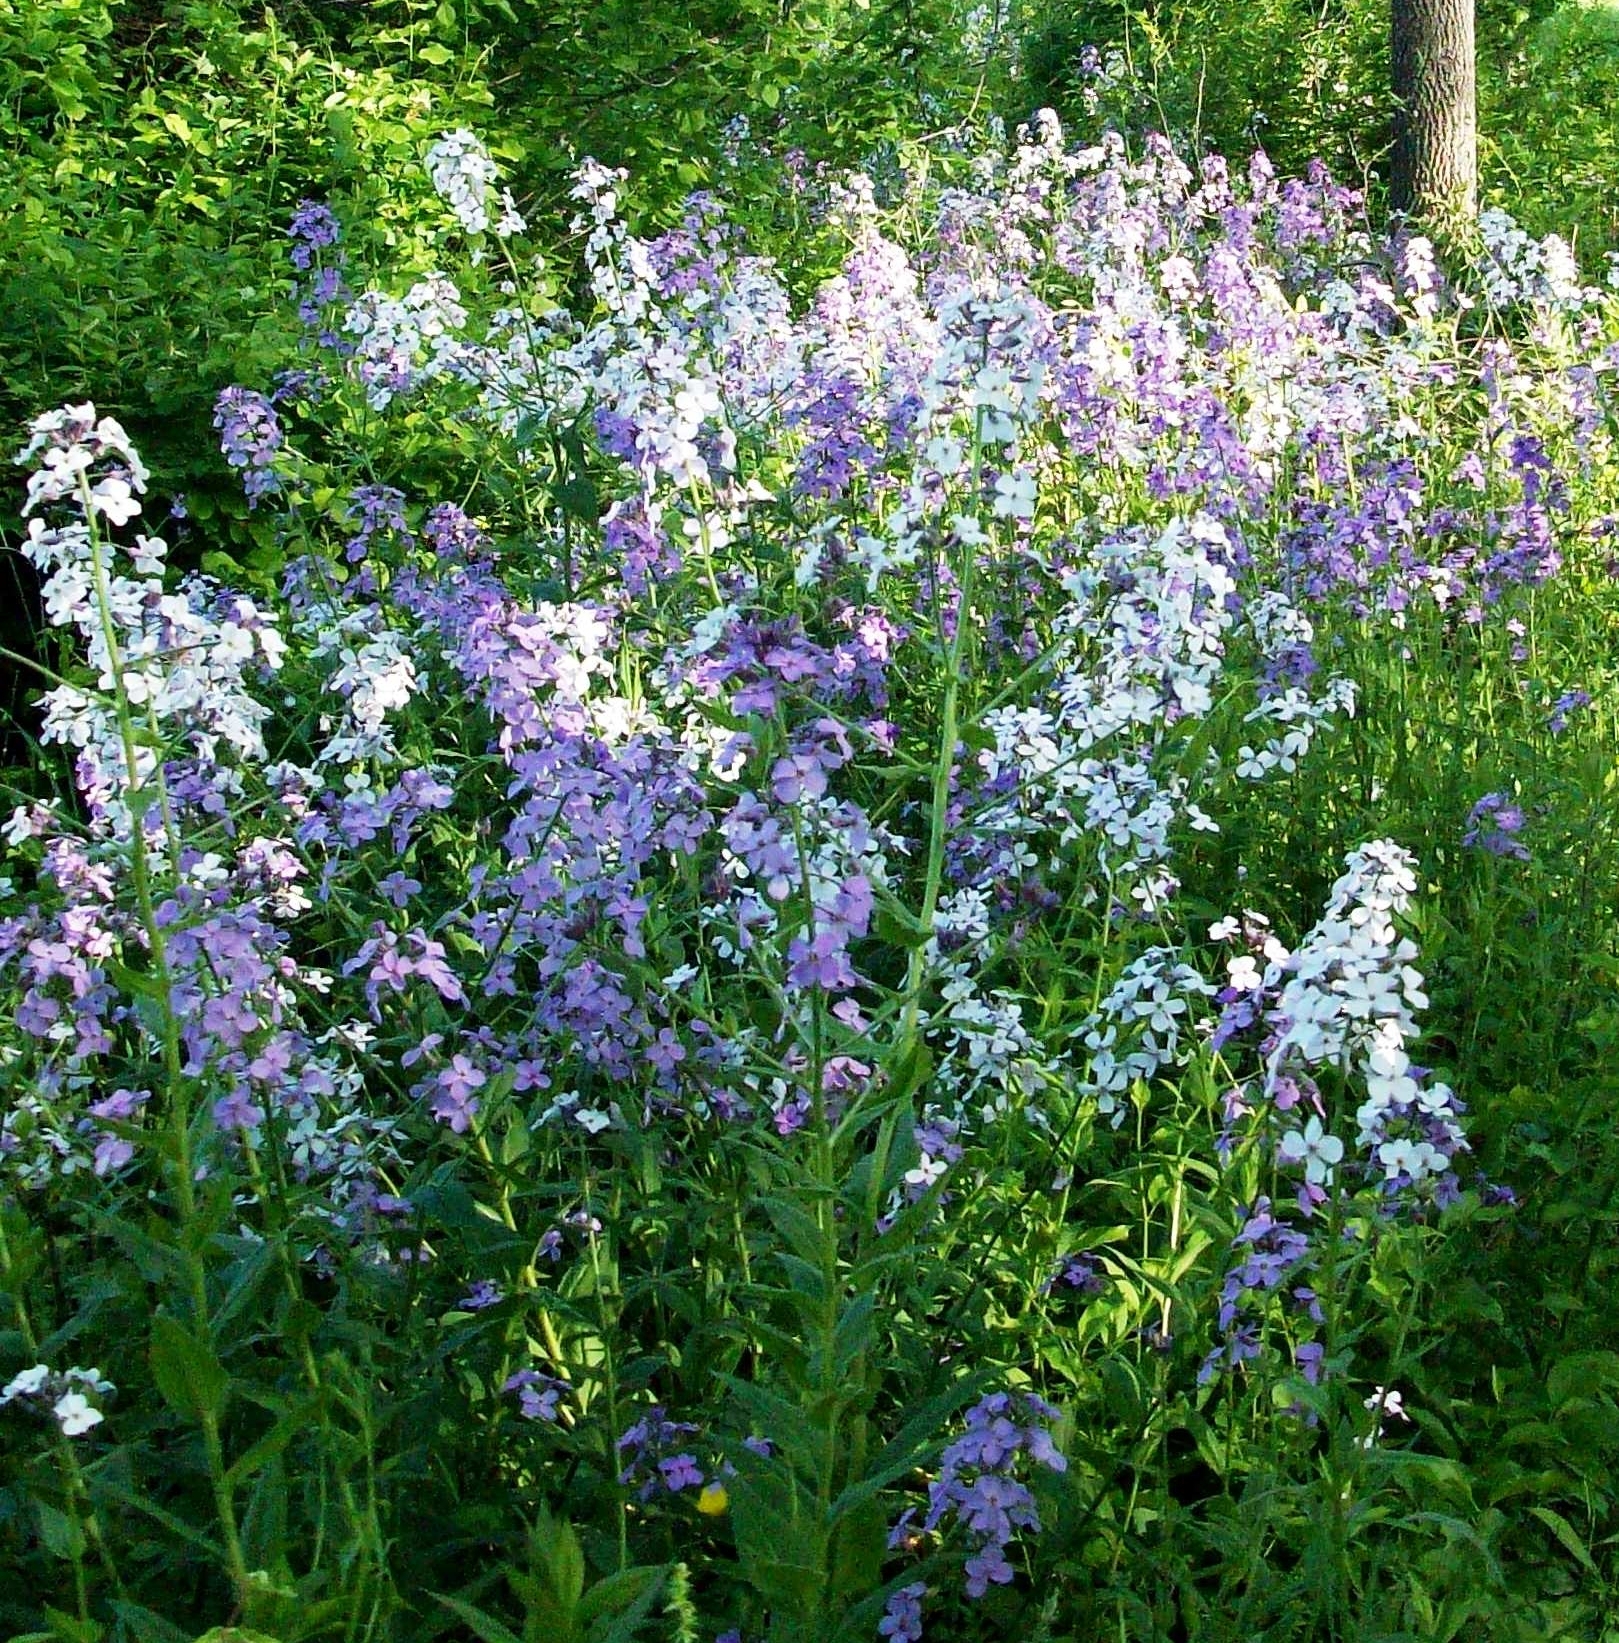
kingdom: Plantae
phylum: Tracheophyta
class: Magnoliopsida
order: Brassicales
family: Brassicaceae
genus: Hesperis
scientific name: Hesperis matronalis
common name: Dame's-violet
